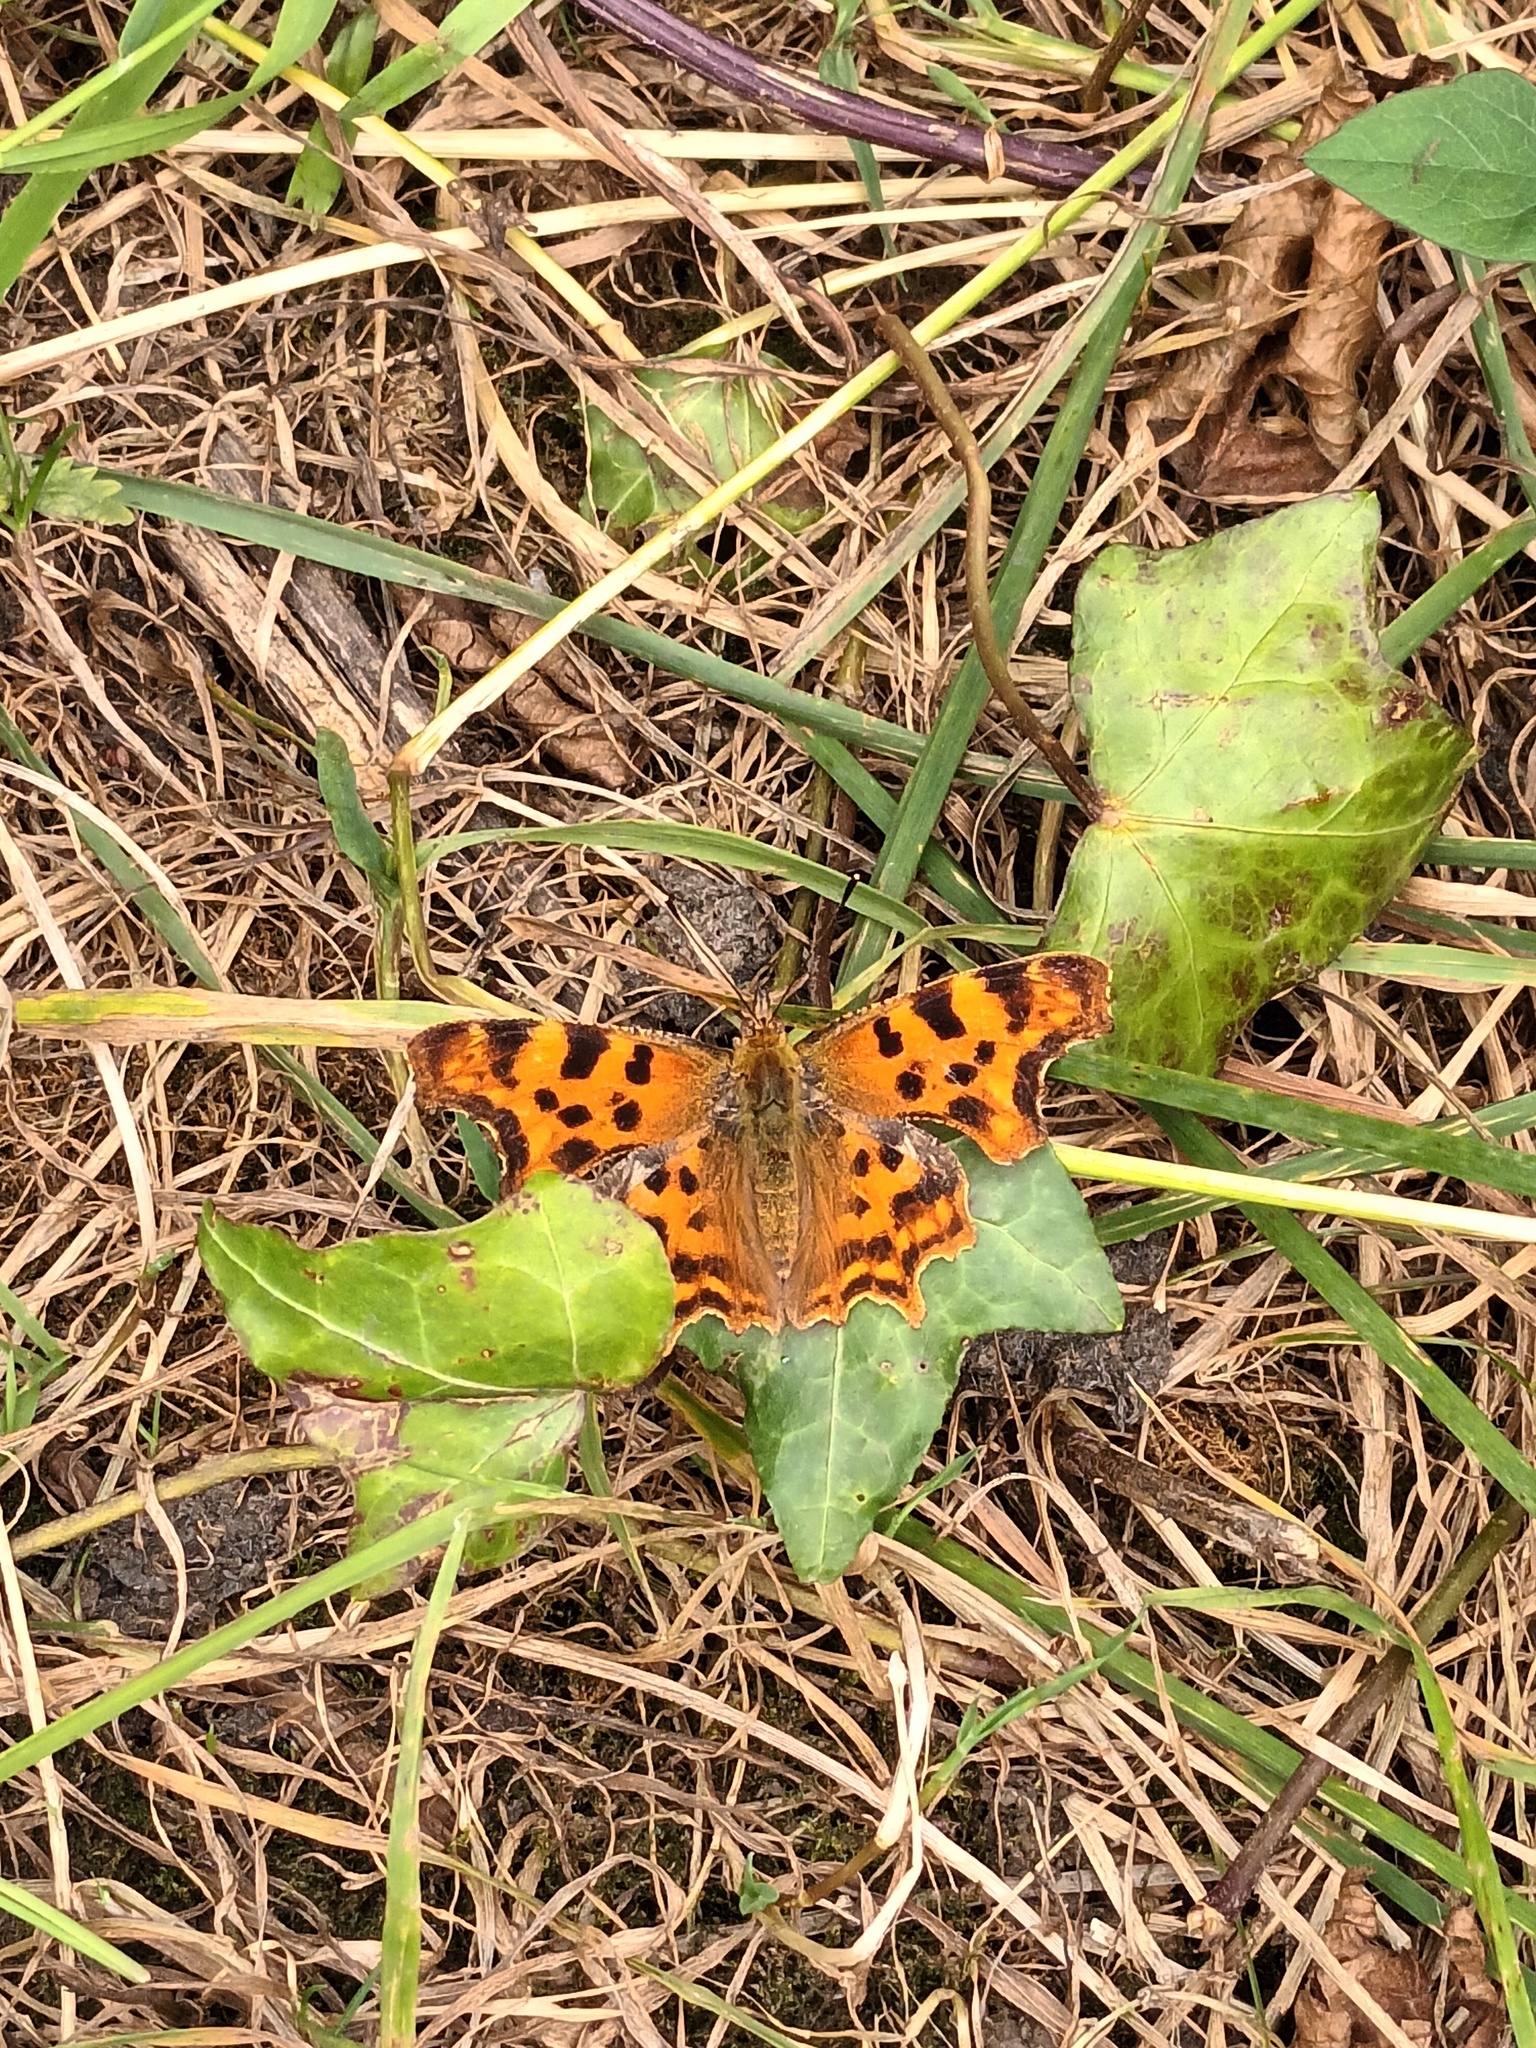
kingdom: Animalia
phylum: Arthropoda
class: Insecta
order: Lepidoptera
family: Nymphalidae
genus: Polygonia
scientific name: Polygonia c-album
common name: Comma
